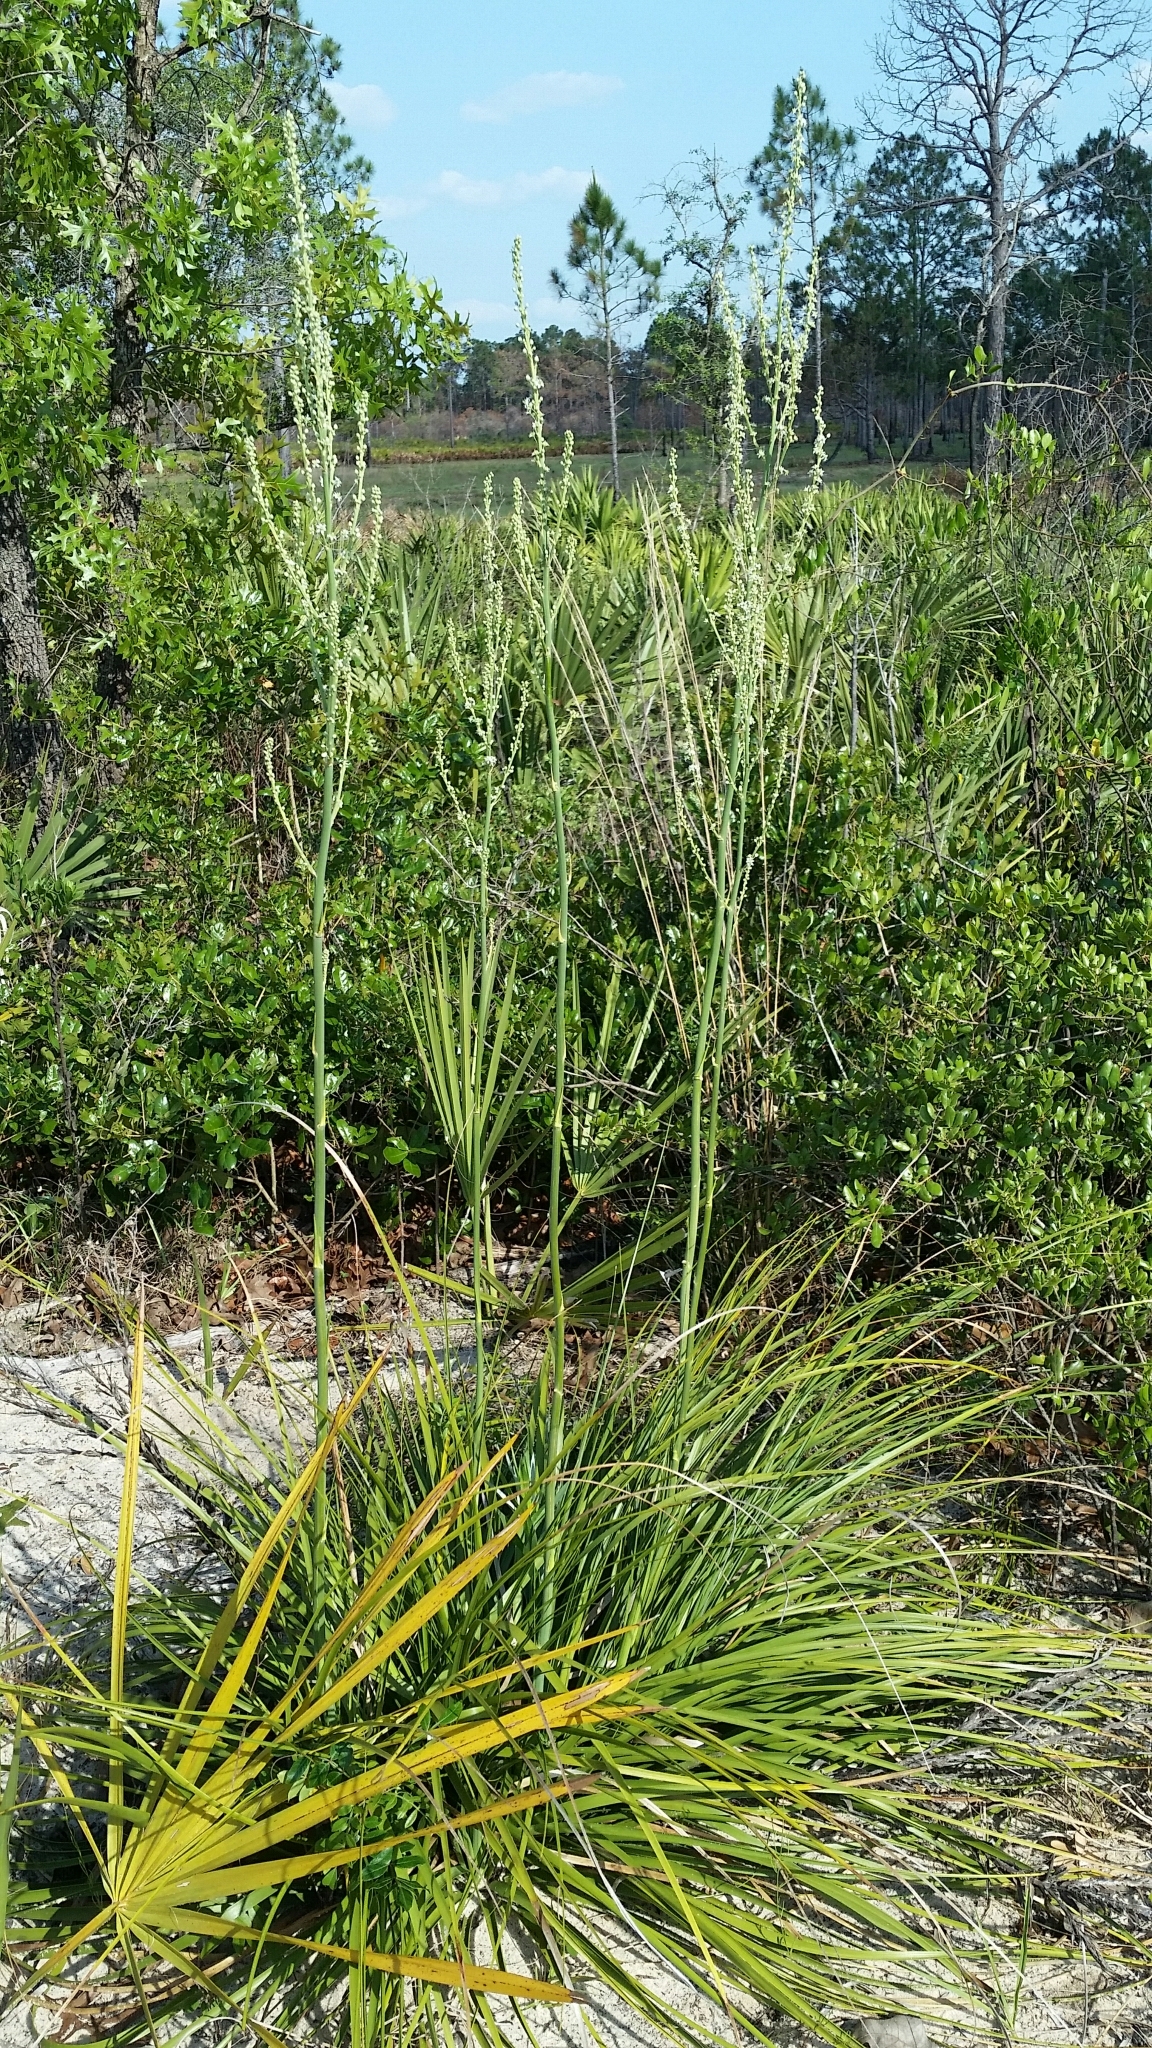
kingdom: Plantae
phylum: Tracheophyta
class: Liliopsida
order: Asparagales
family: Asparagaceae
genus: Nolina
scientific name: Nolina brittoniana
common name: Britton's bear-grass
